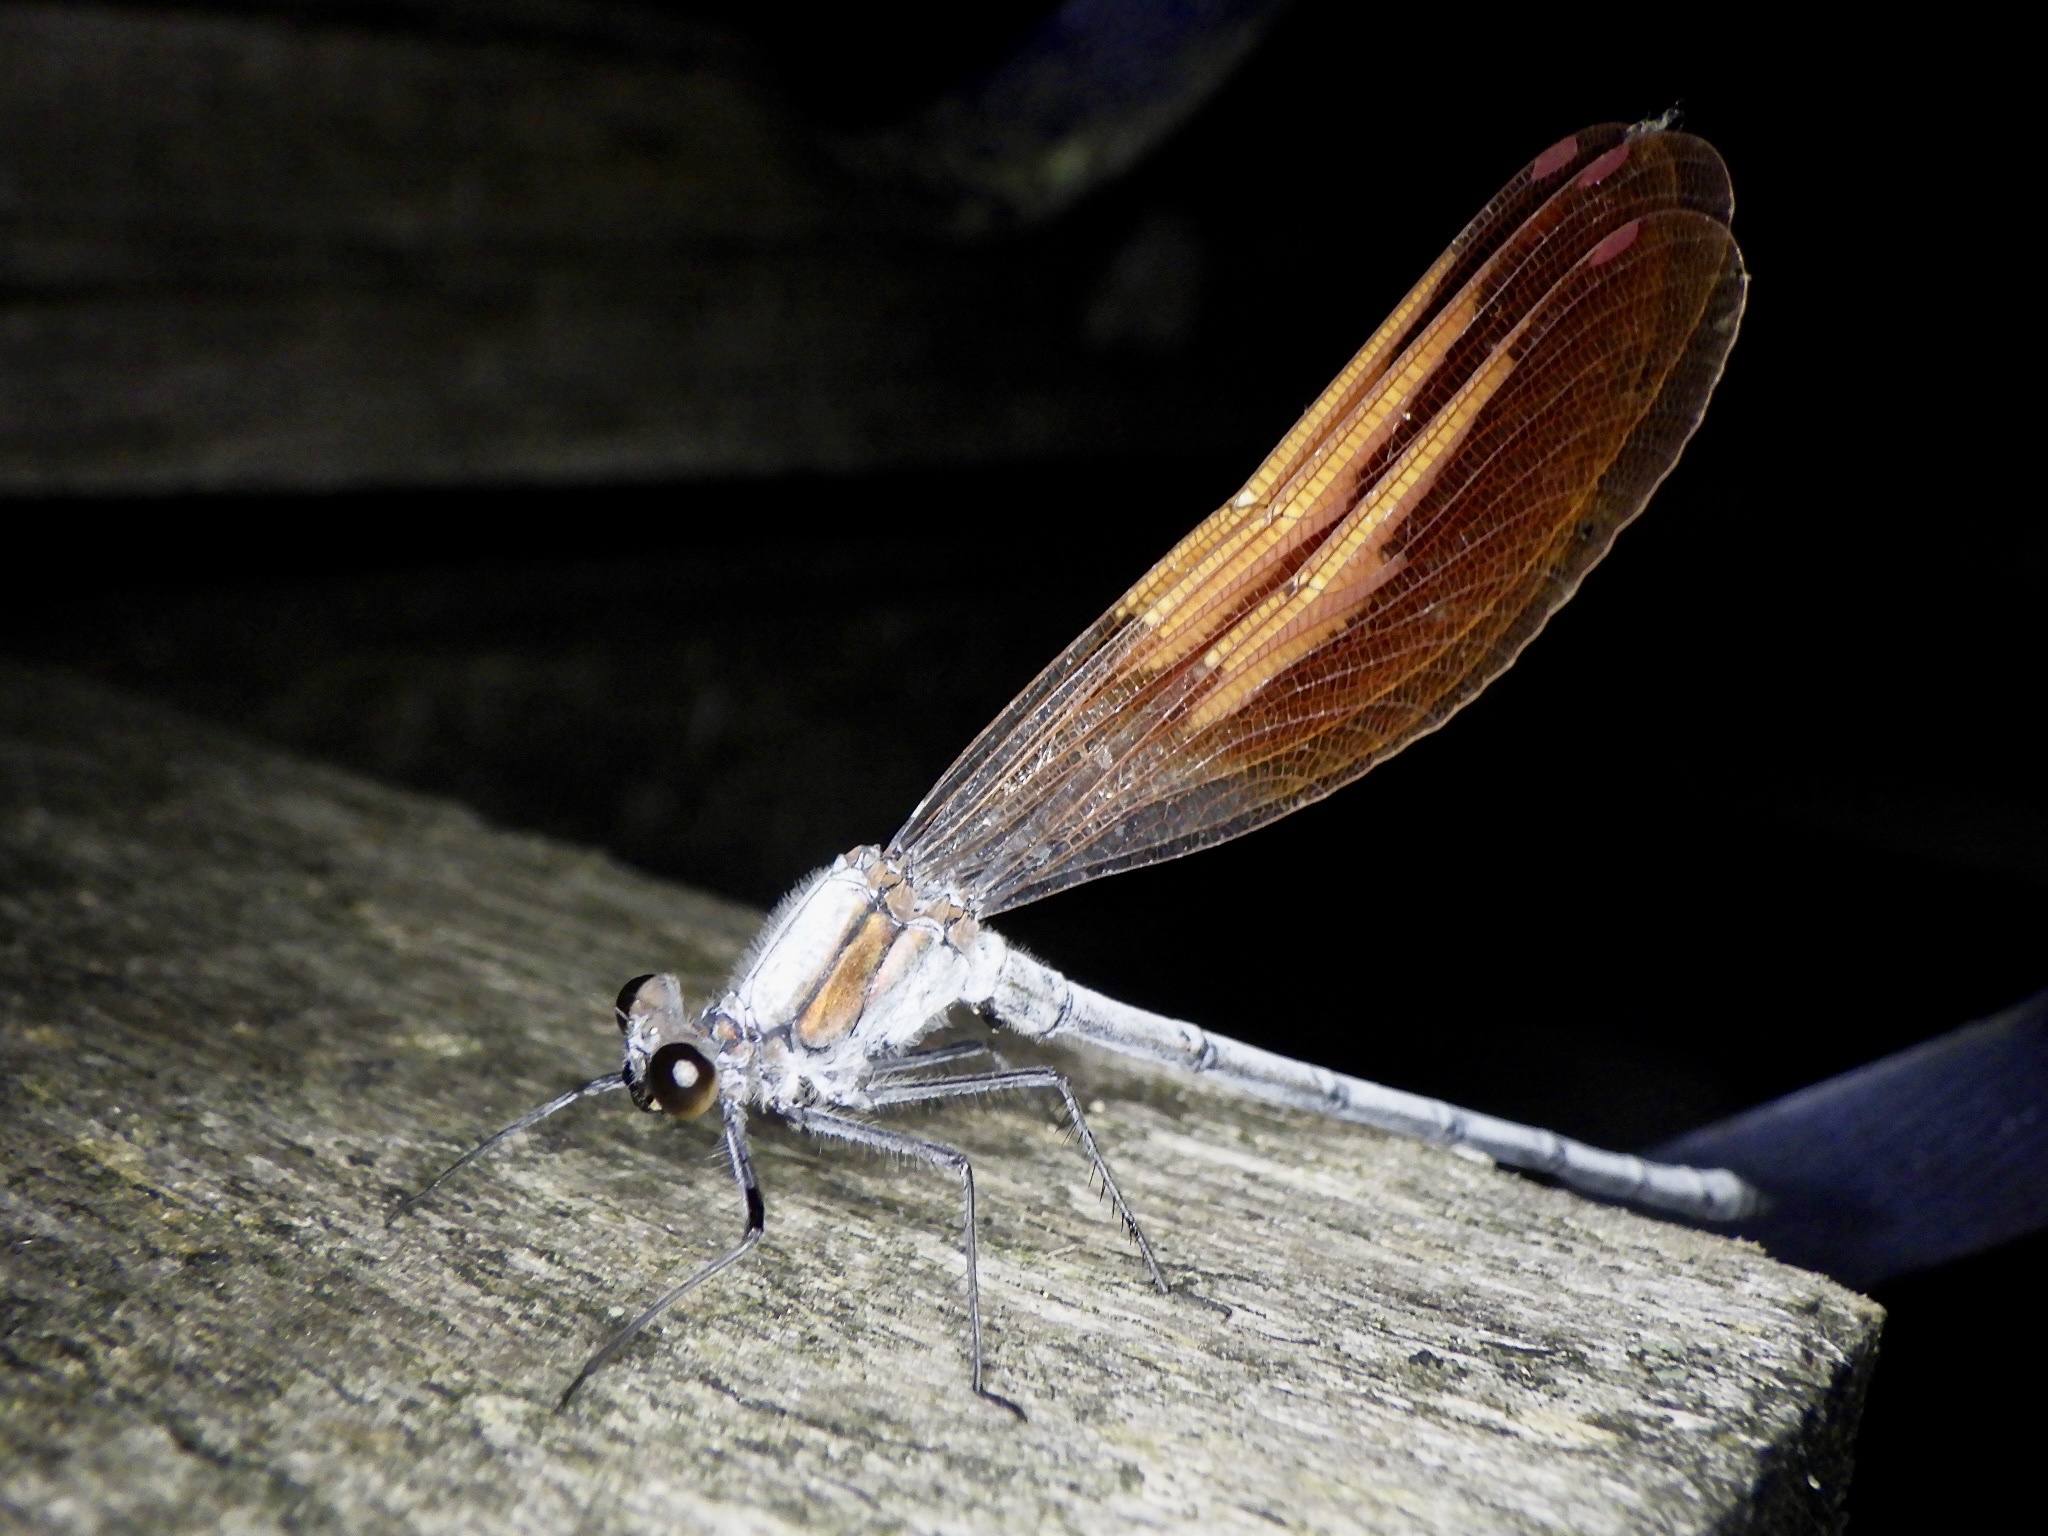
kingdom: Animalia
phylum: Arthropoda
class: Insecta
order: Odonata
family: Calopterygidae
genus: Mnais
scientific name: Mnais costalis
